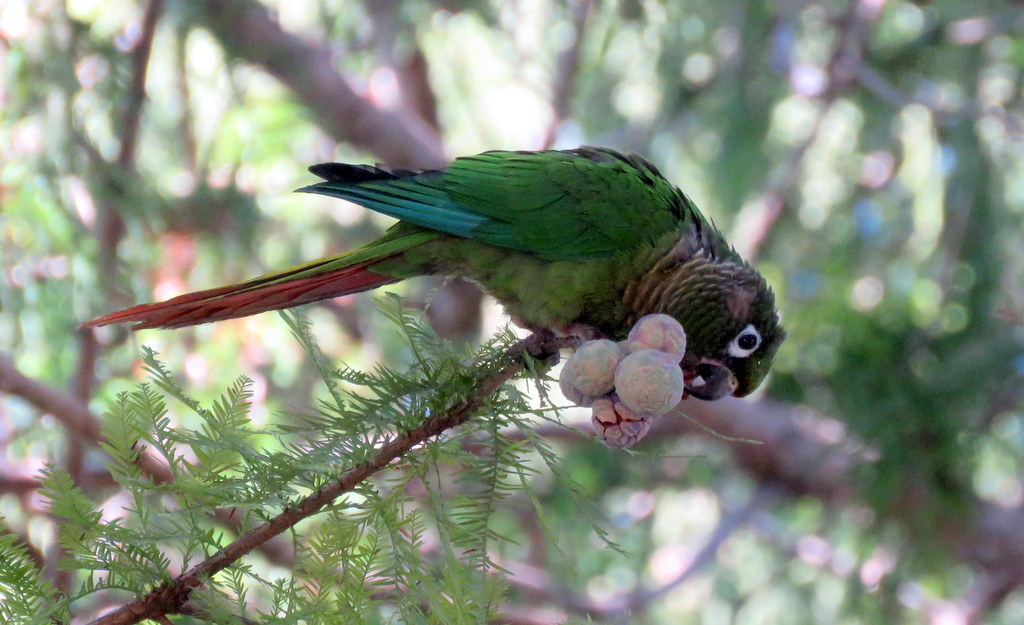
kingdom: Animalia
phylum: Chordata
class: Aves
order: Psittaciformes
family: Psittacidae
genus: Pyrrhura
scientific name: Pyrrhura frontalis
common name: Maroon-bellied parakeet
